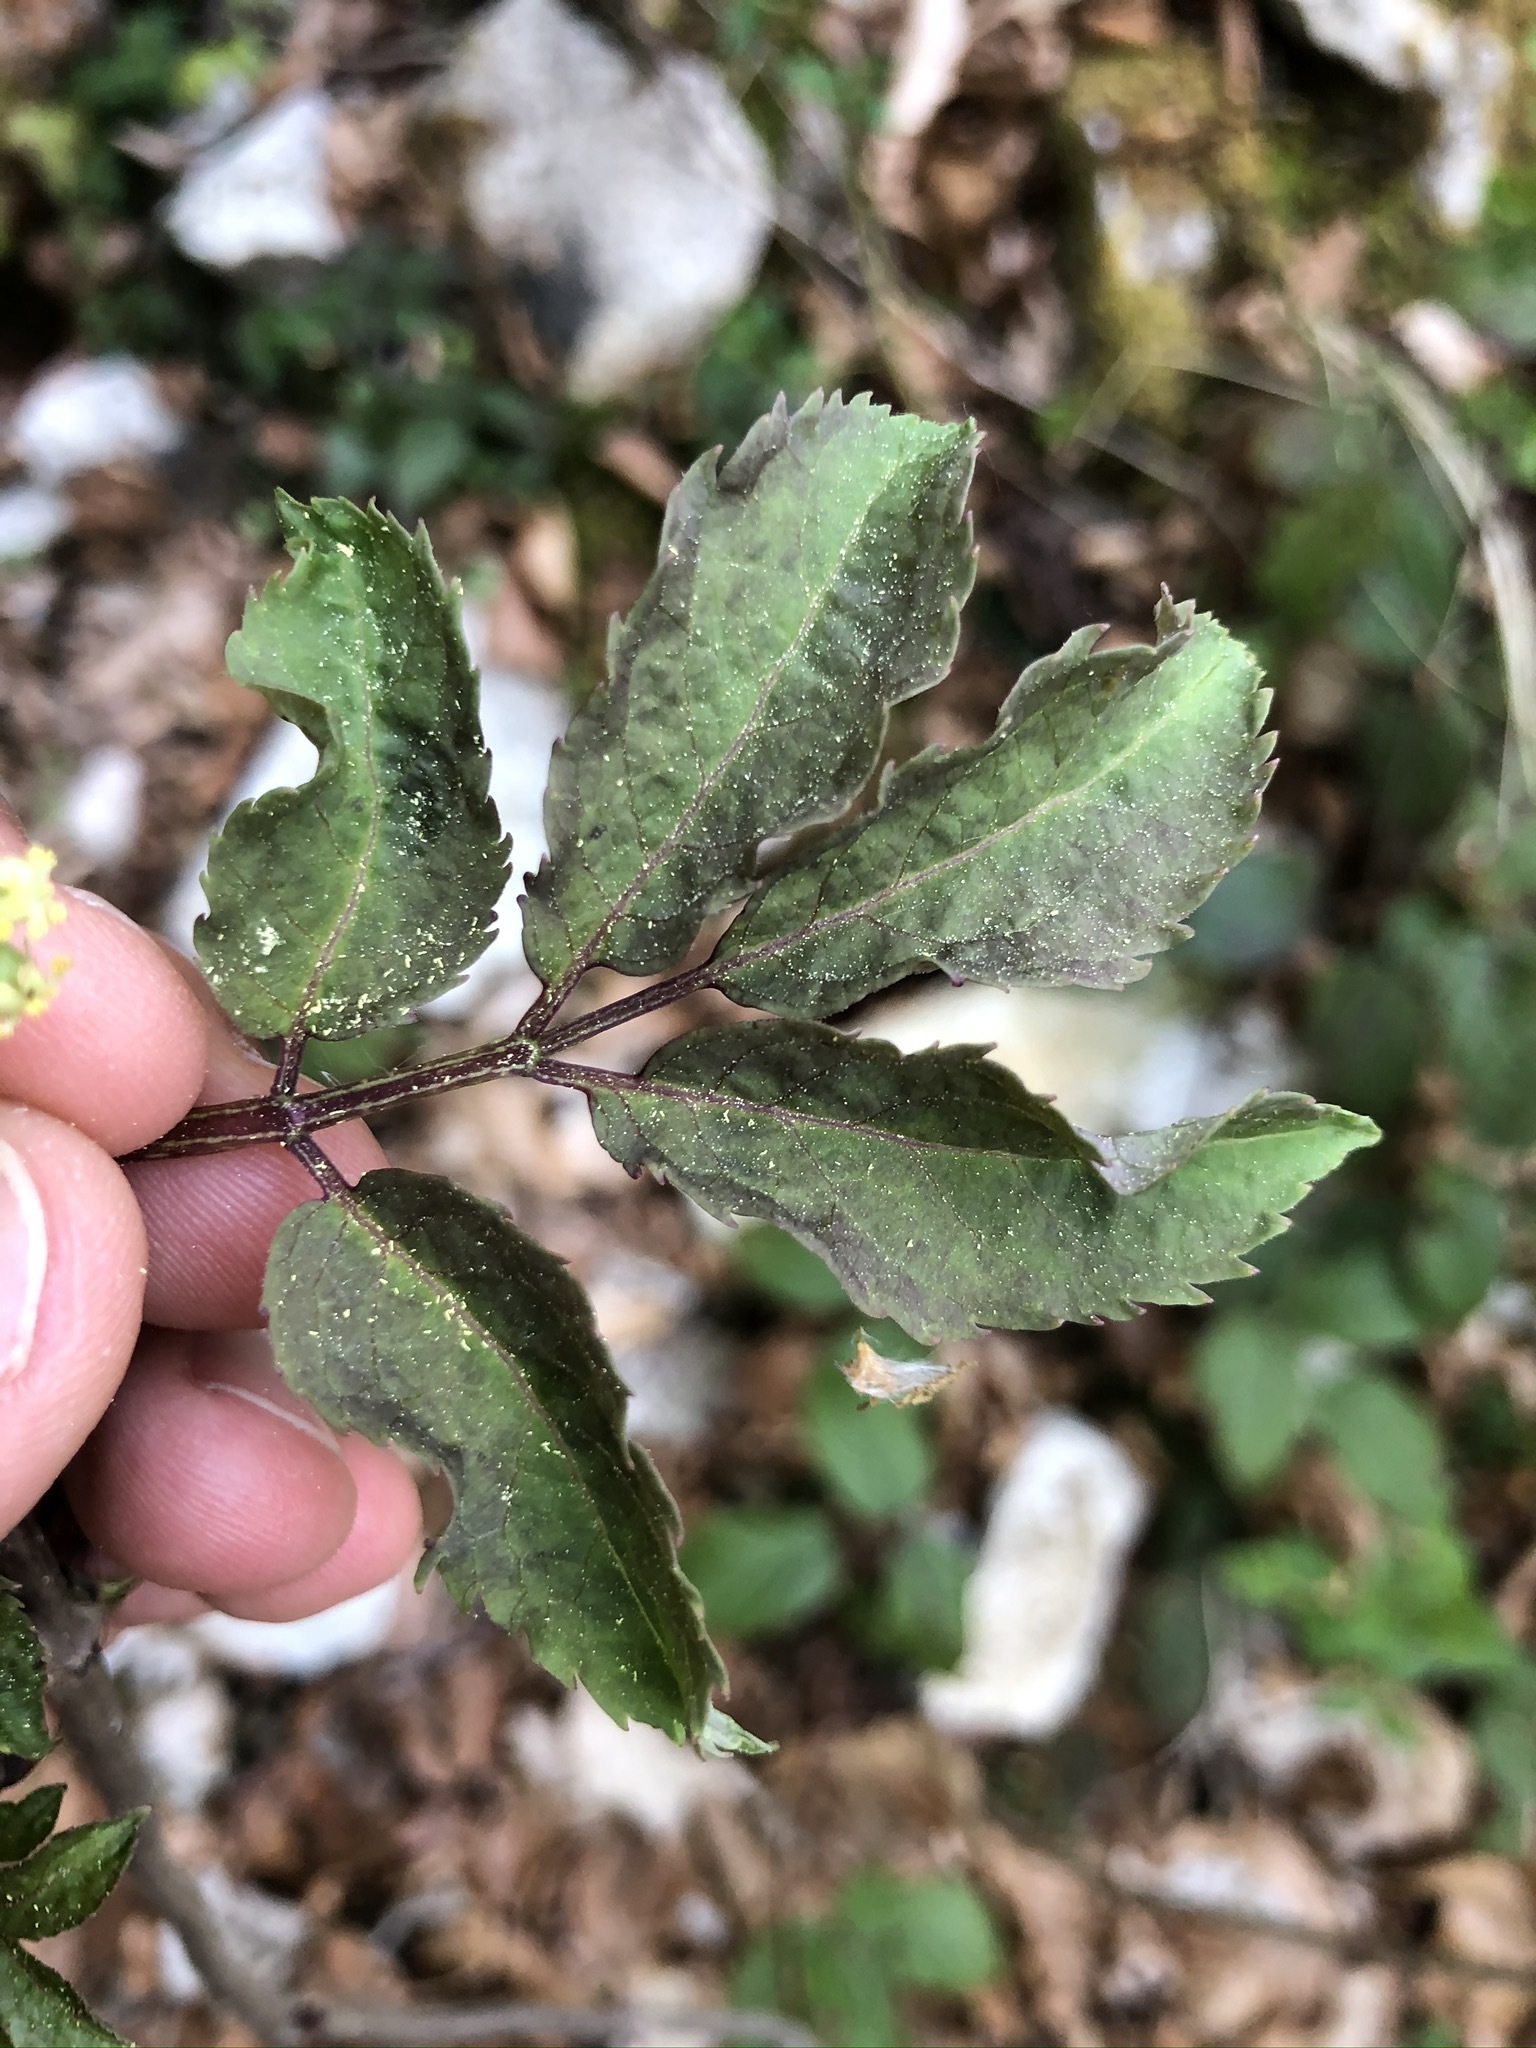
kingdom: Plantae
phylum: Tracheophyta
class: Magnoliopsida
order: Dipsacales
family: Viburnaceae
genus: Sambucus
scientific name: Sambucus racemosa
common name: Red-berried elder
